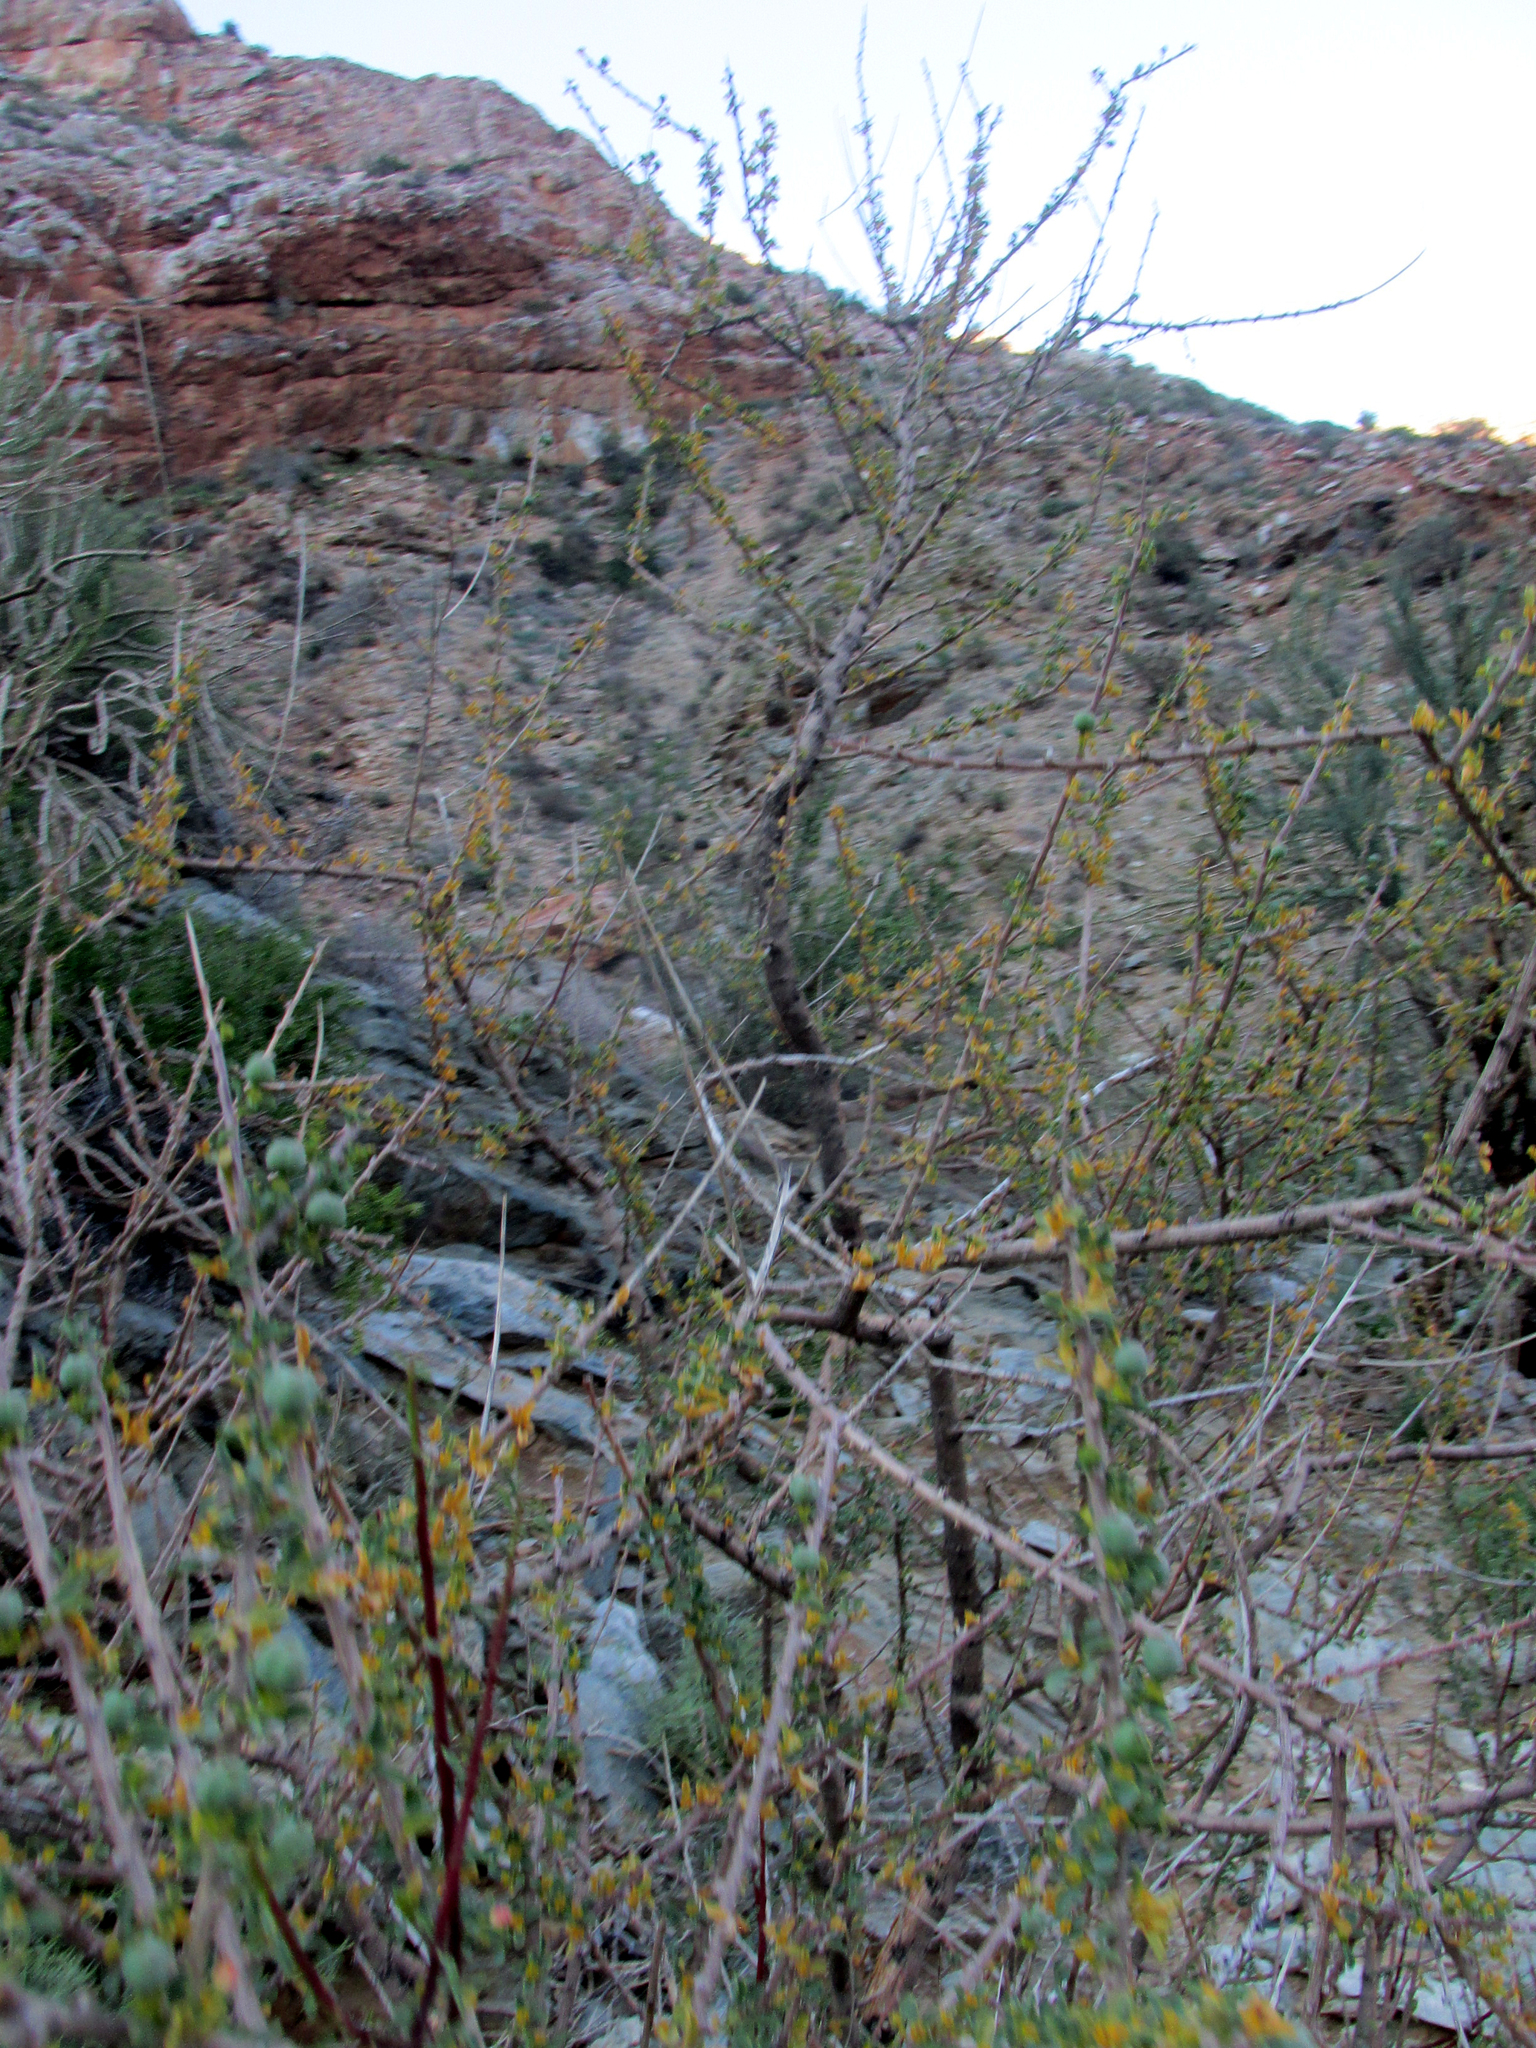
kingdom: Plantae
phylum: Tracheophyta
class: Magnoliopsida
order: Malpighiales
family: Euphorbiaceae
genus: Euphorbia
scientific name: Euphorbia guerichiana
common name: Paper-barked milkbush
